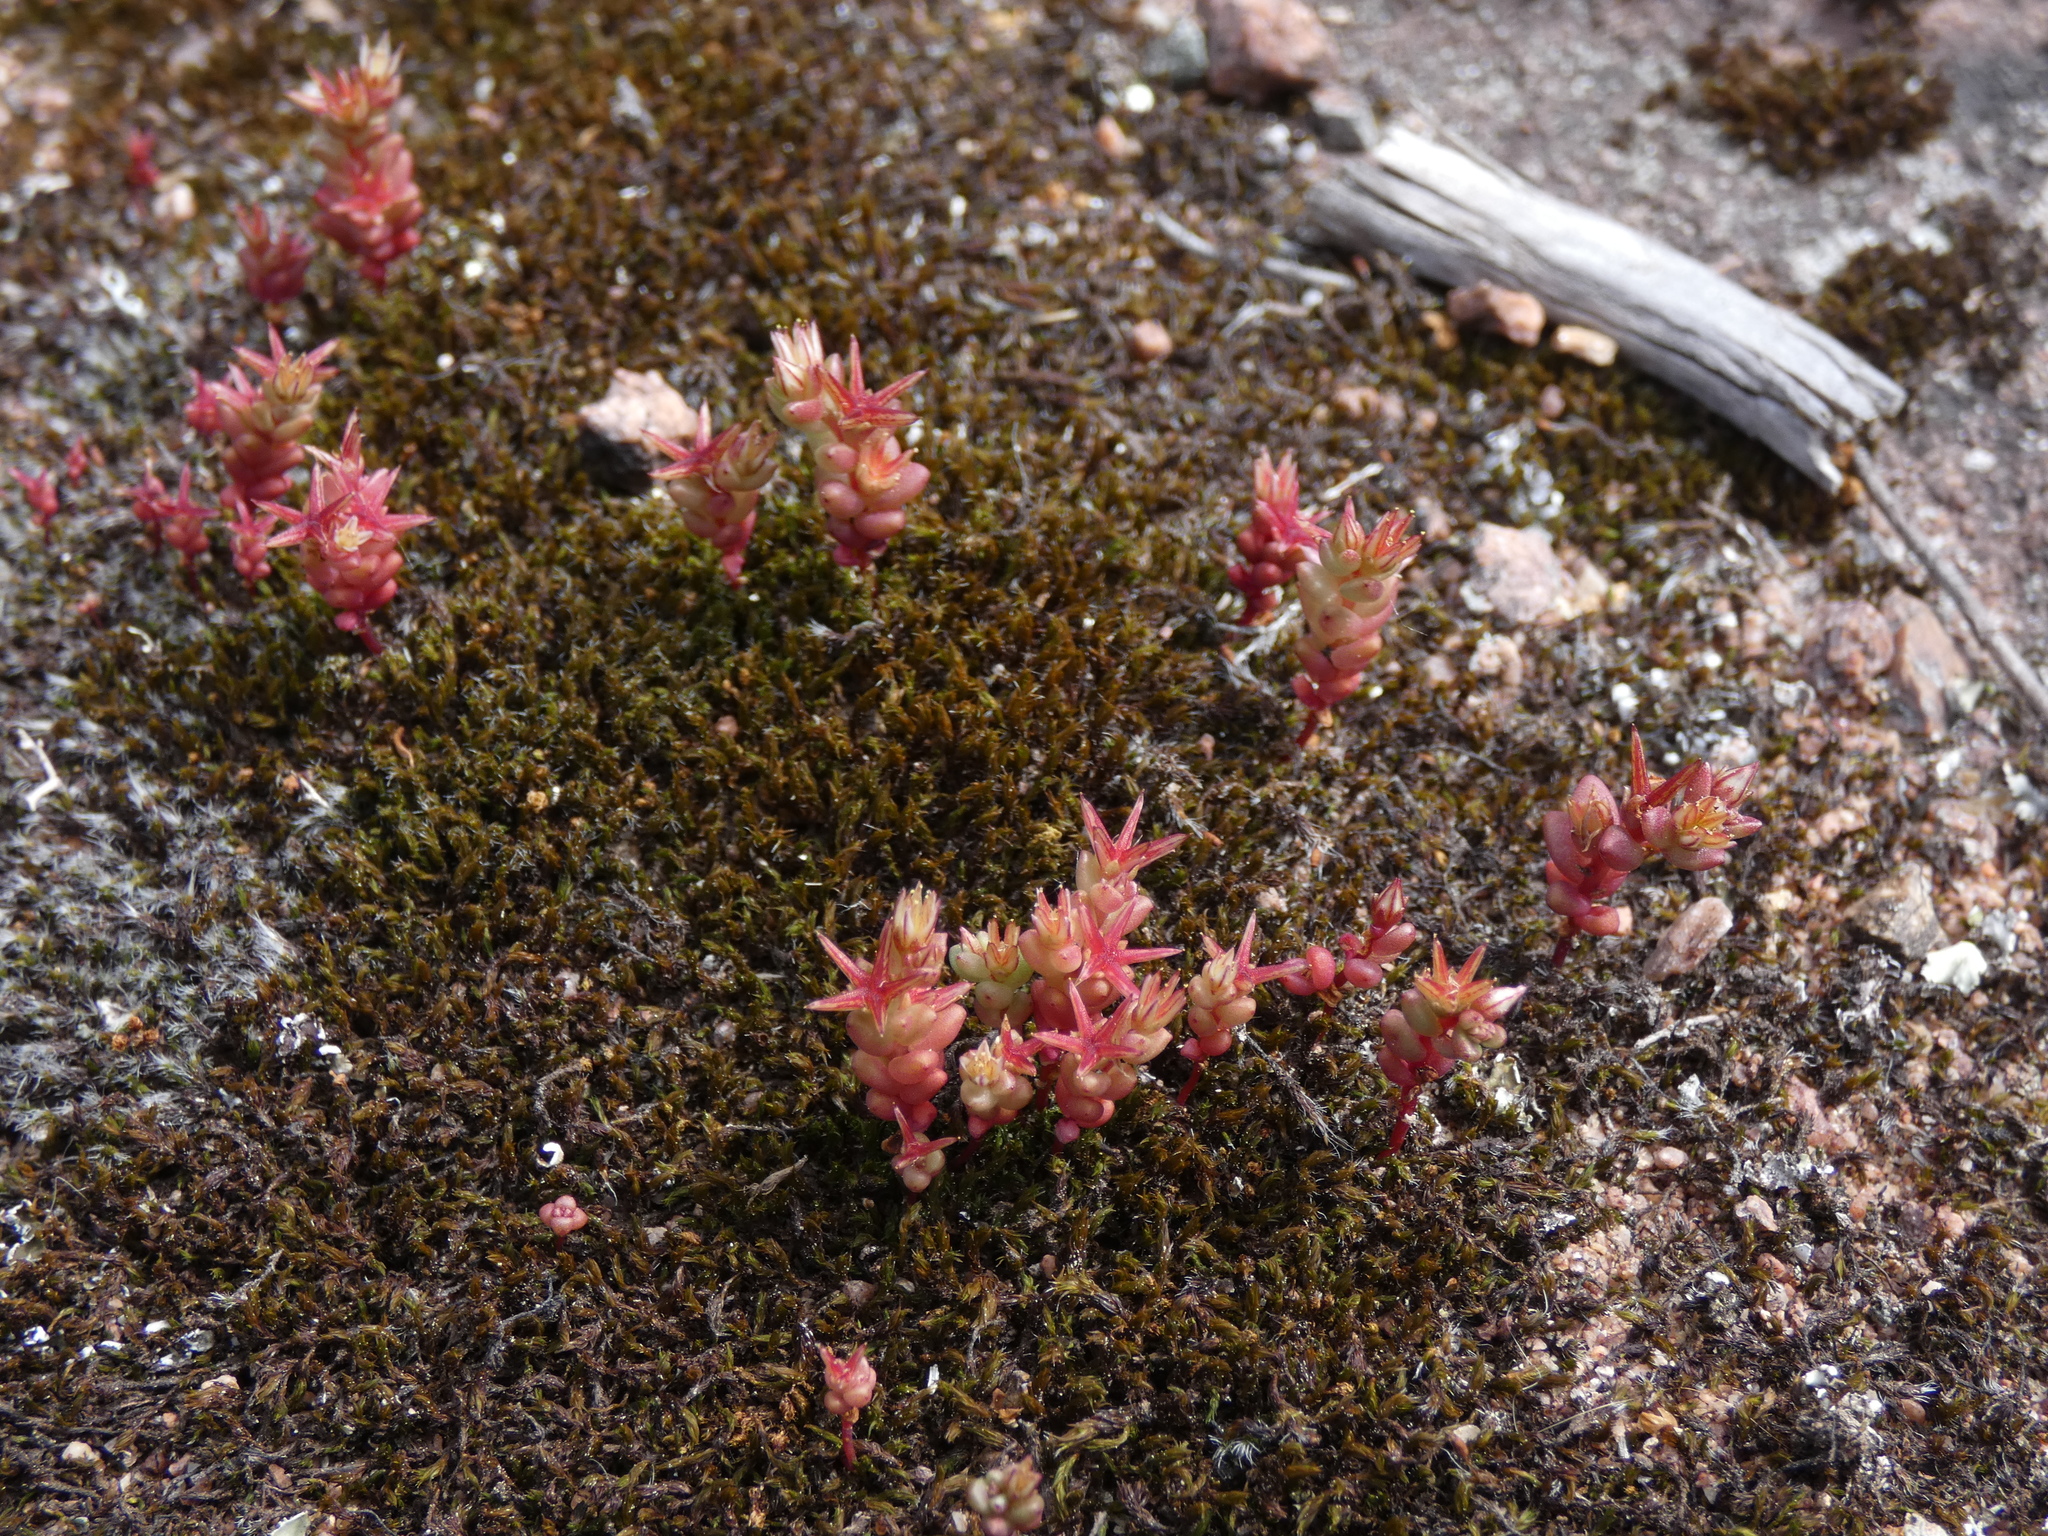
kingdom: Plantae
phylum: Tracheophyta
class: Magnoliopsida
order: Saxifragales
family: Crassulaceae
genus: Sedum
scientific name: Sedum cespitosum
